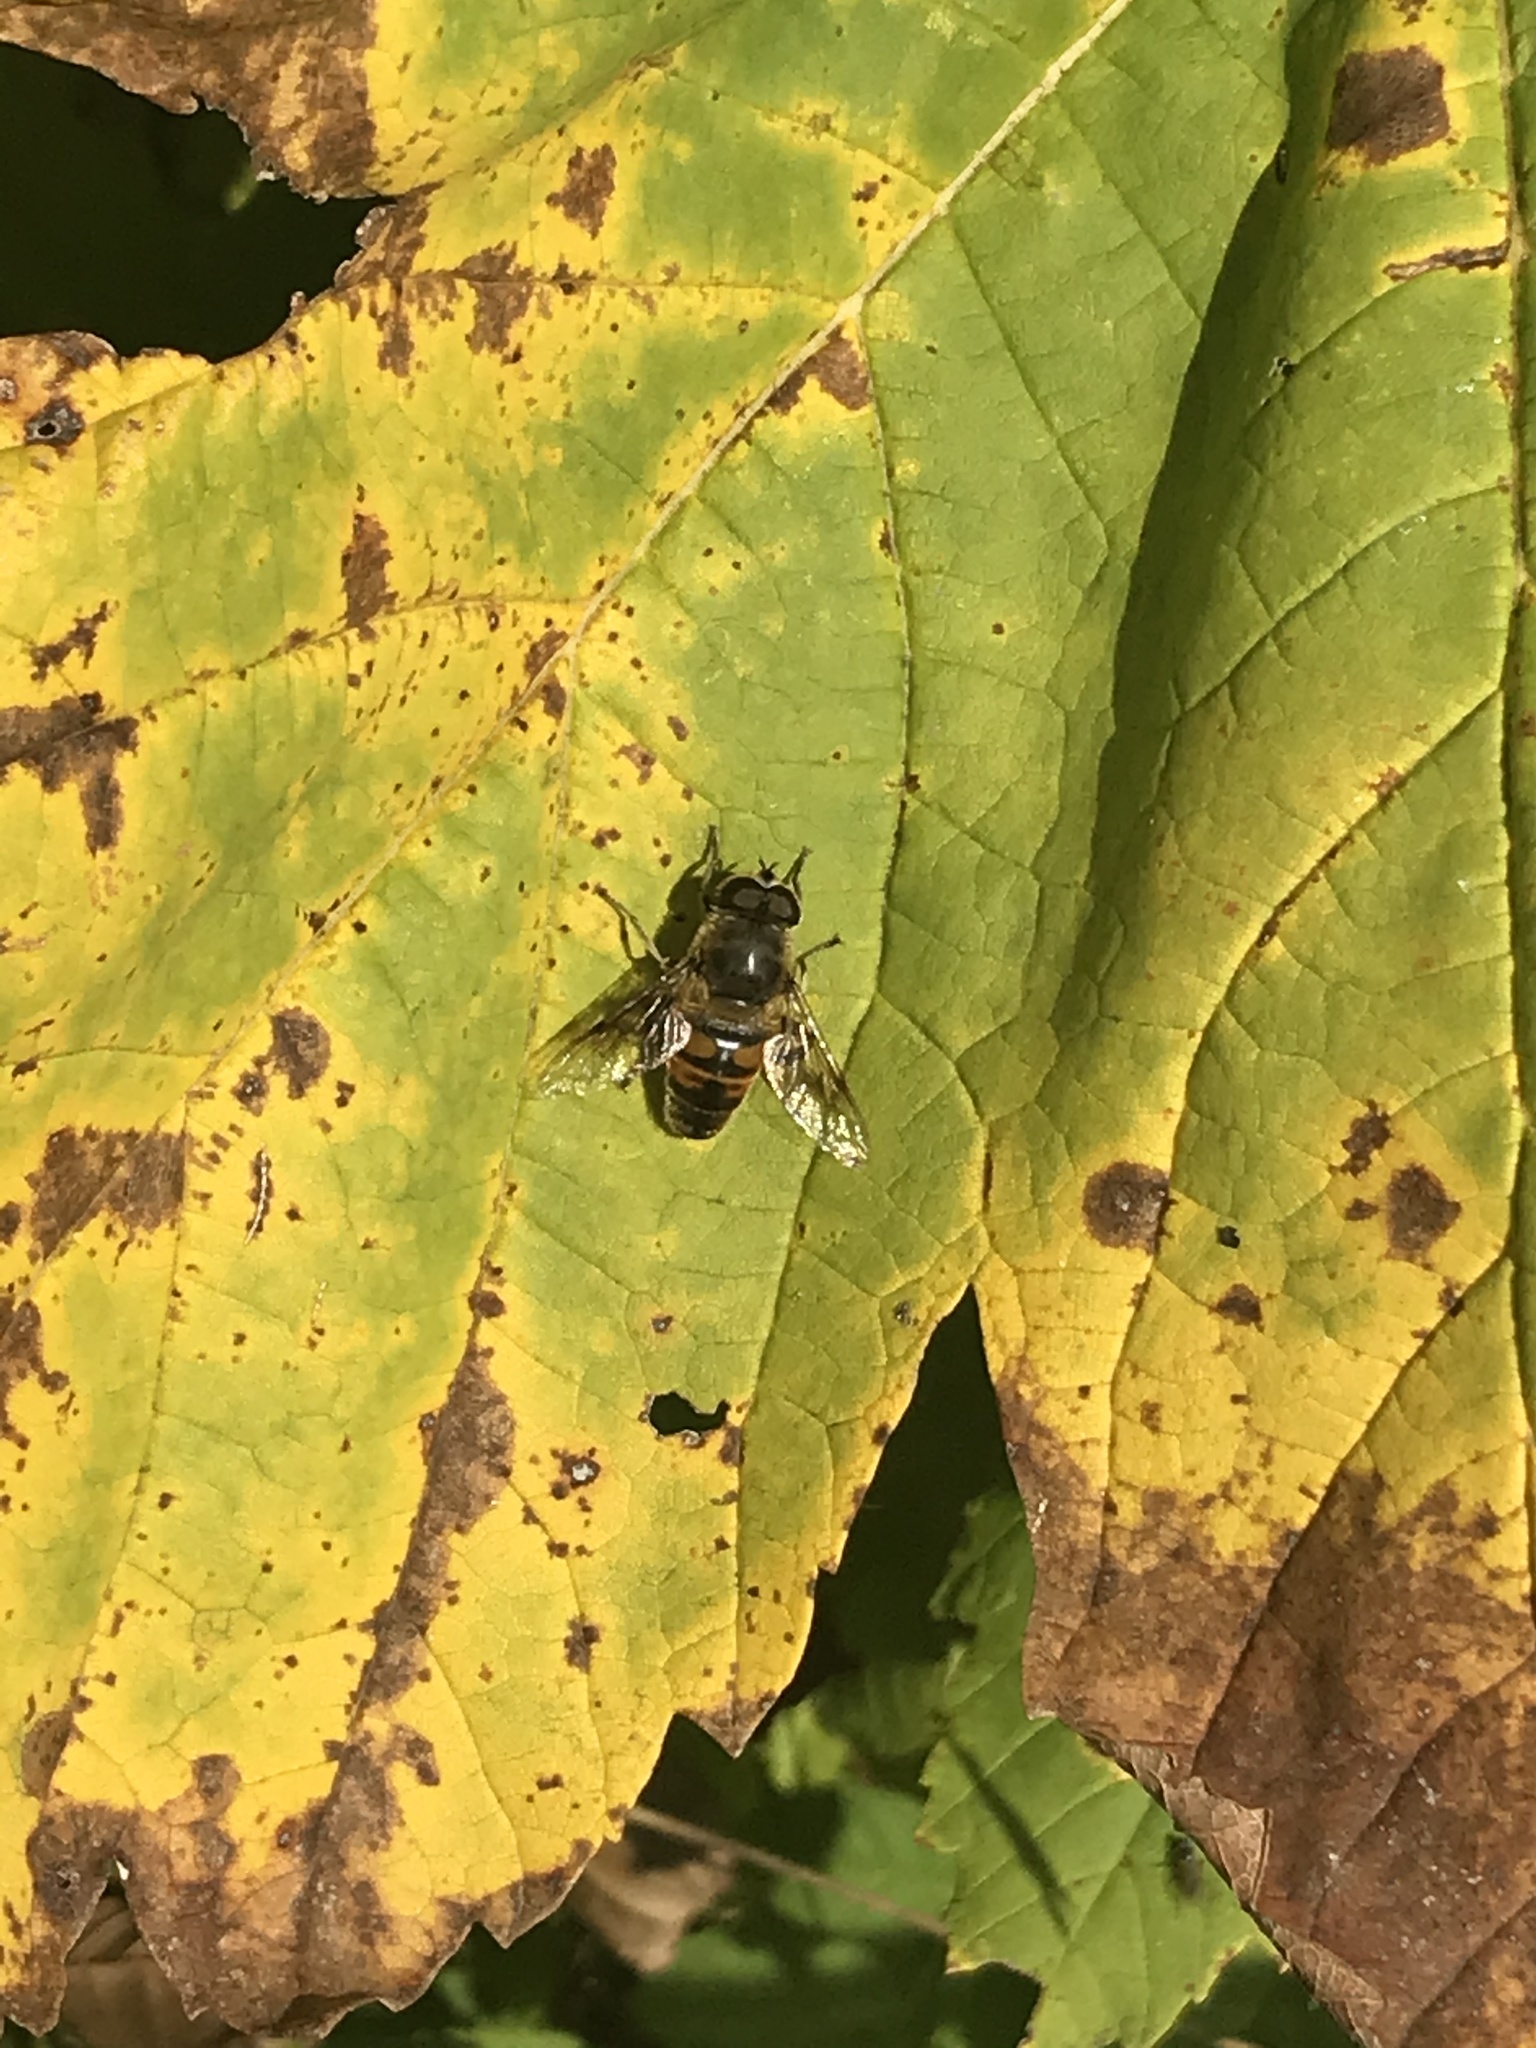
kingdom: Animalia
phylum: Arthropoda
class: Insecta
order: Diptera
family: Syrphidae
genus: Eristalis
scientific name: Eristalis tenax
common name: Drone fly
